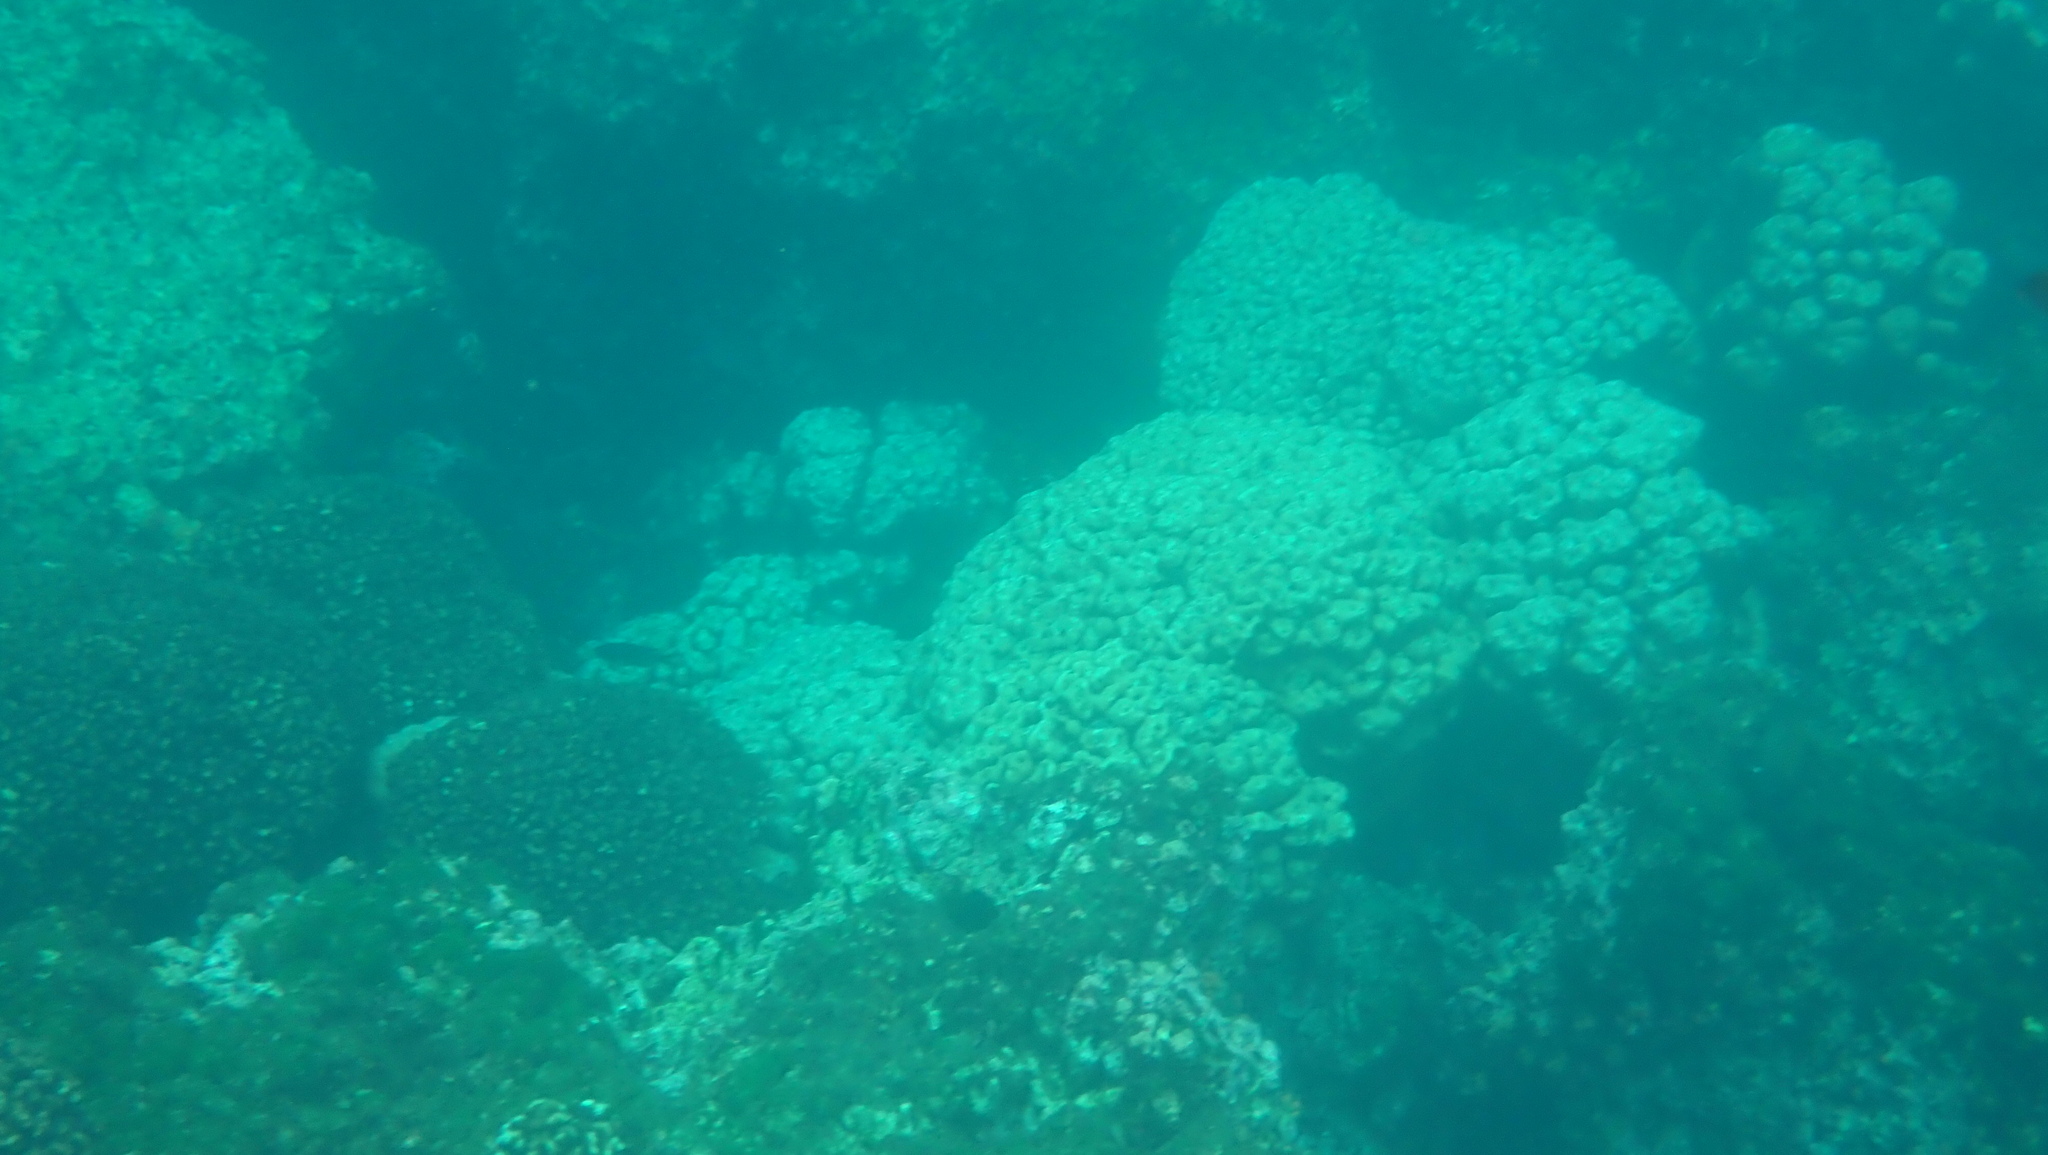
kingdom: Animalia
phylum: Cnidaria
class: Anthozoa
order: Scleractinia
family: Agariciidae
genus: Pavona
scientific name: Pavona gigantea
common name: Leaf coral
